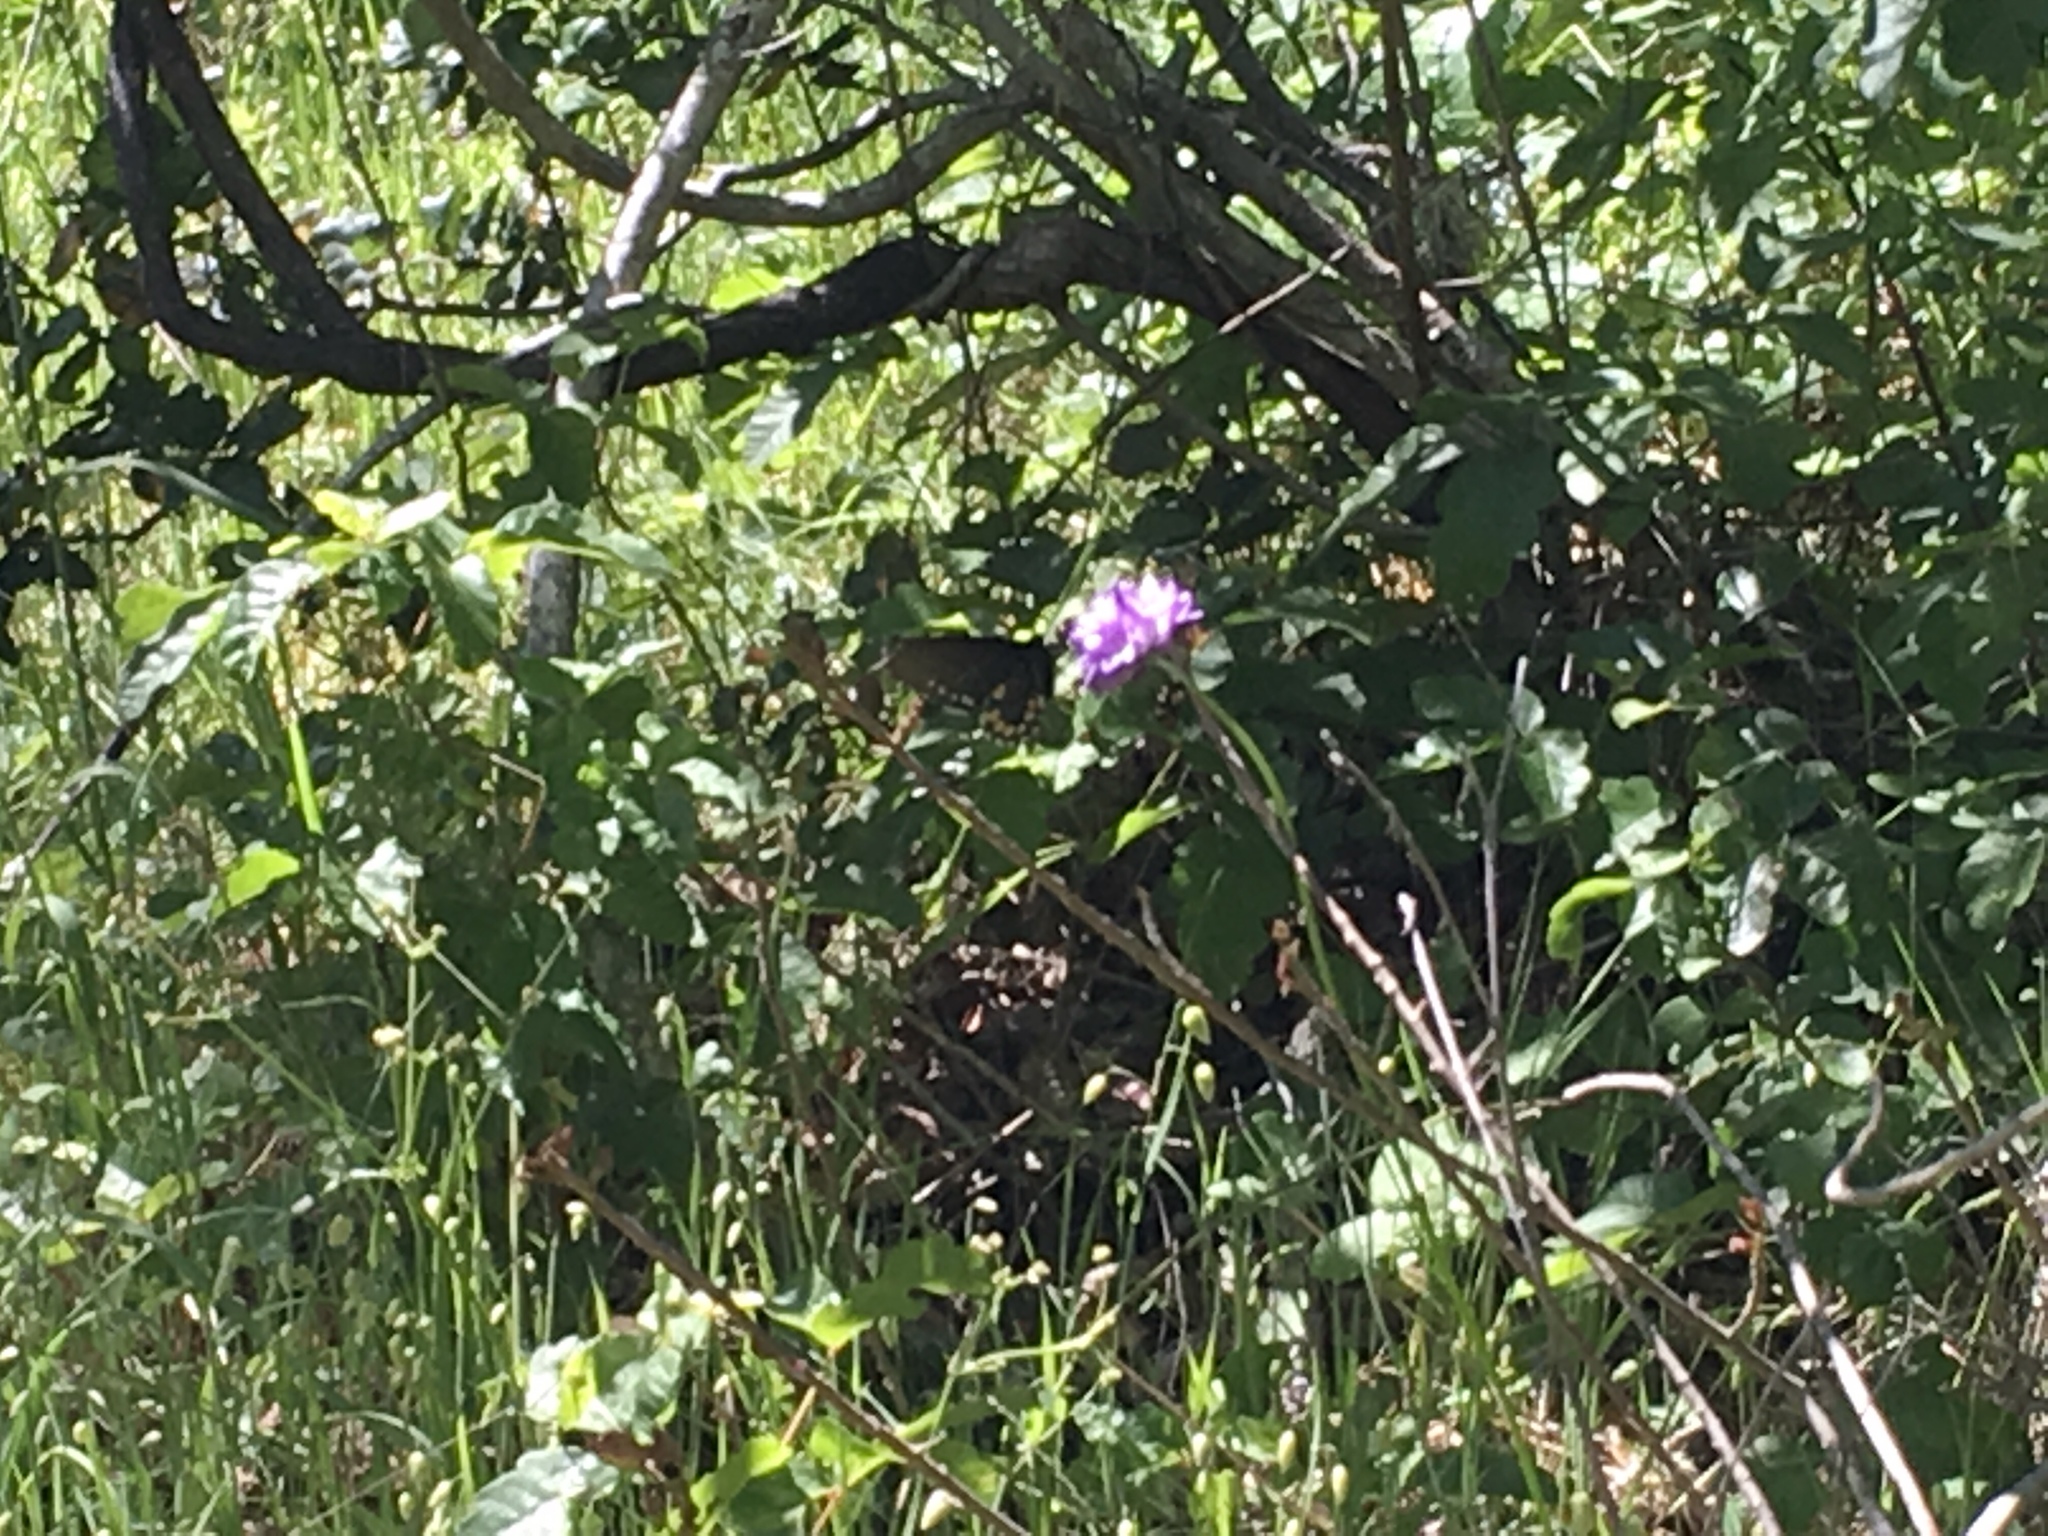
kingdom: Animalia
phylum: Arthropoda
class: Insecta
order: Lepidoptera
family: Papilionidae
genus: Battus
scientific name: Battus philenor
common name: Pipevine swallowtail
